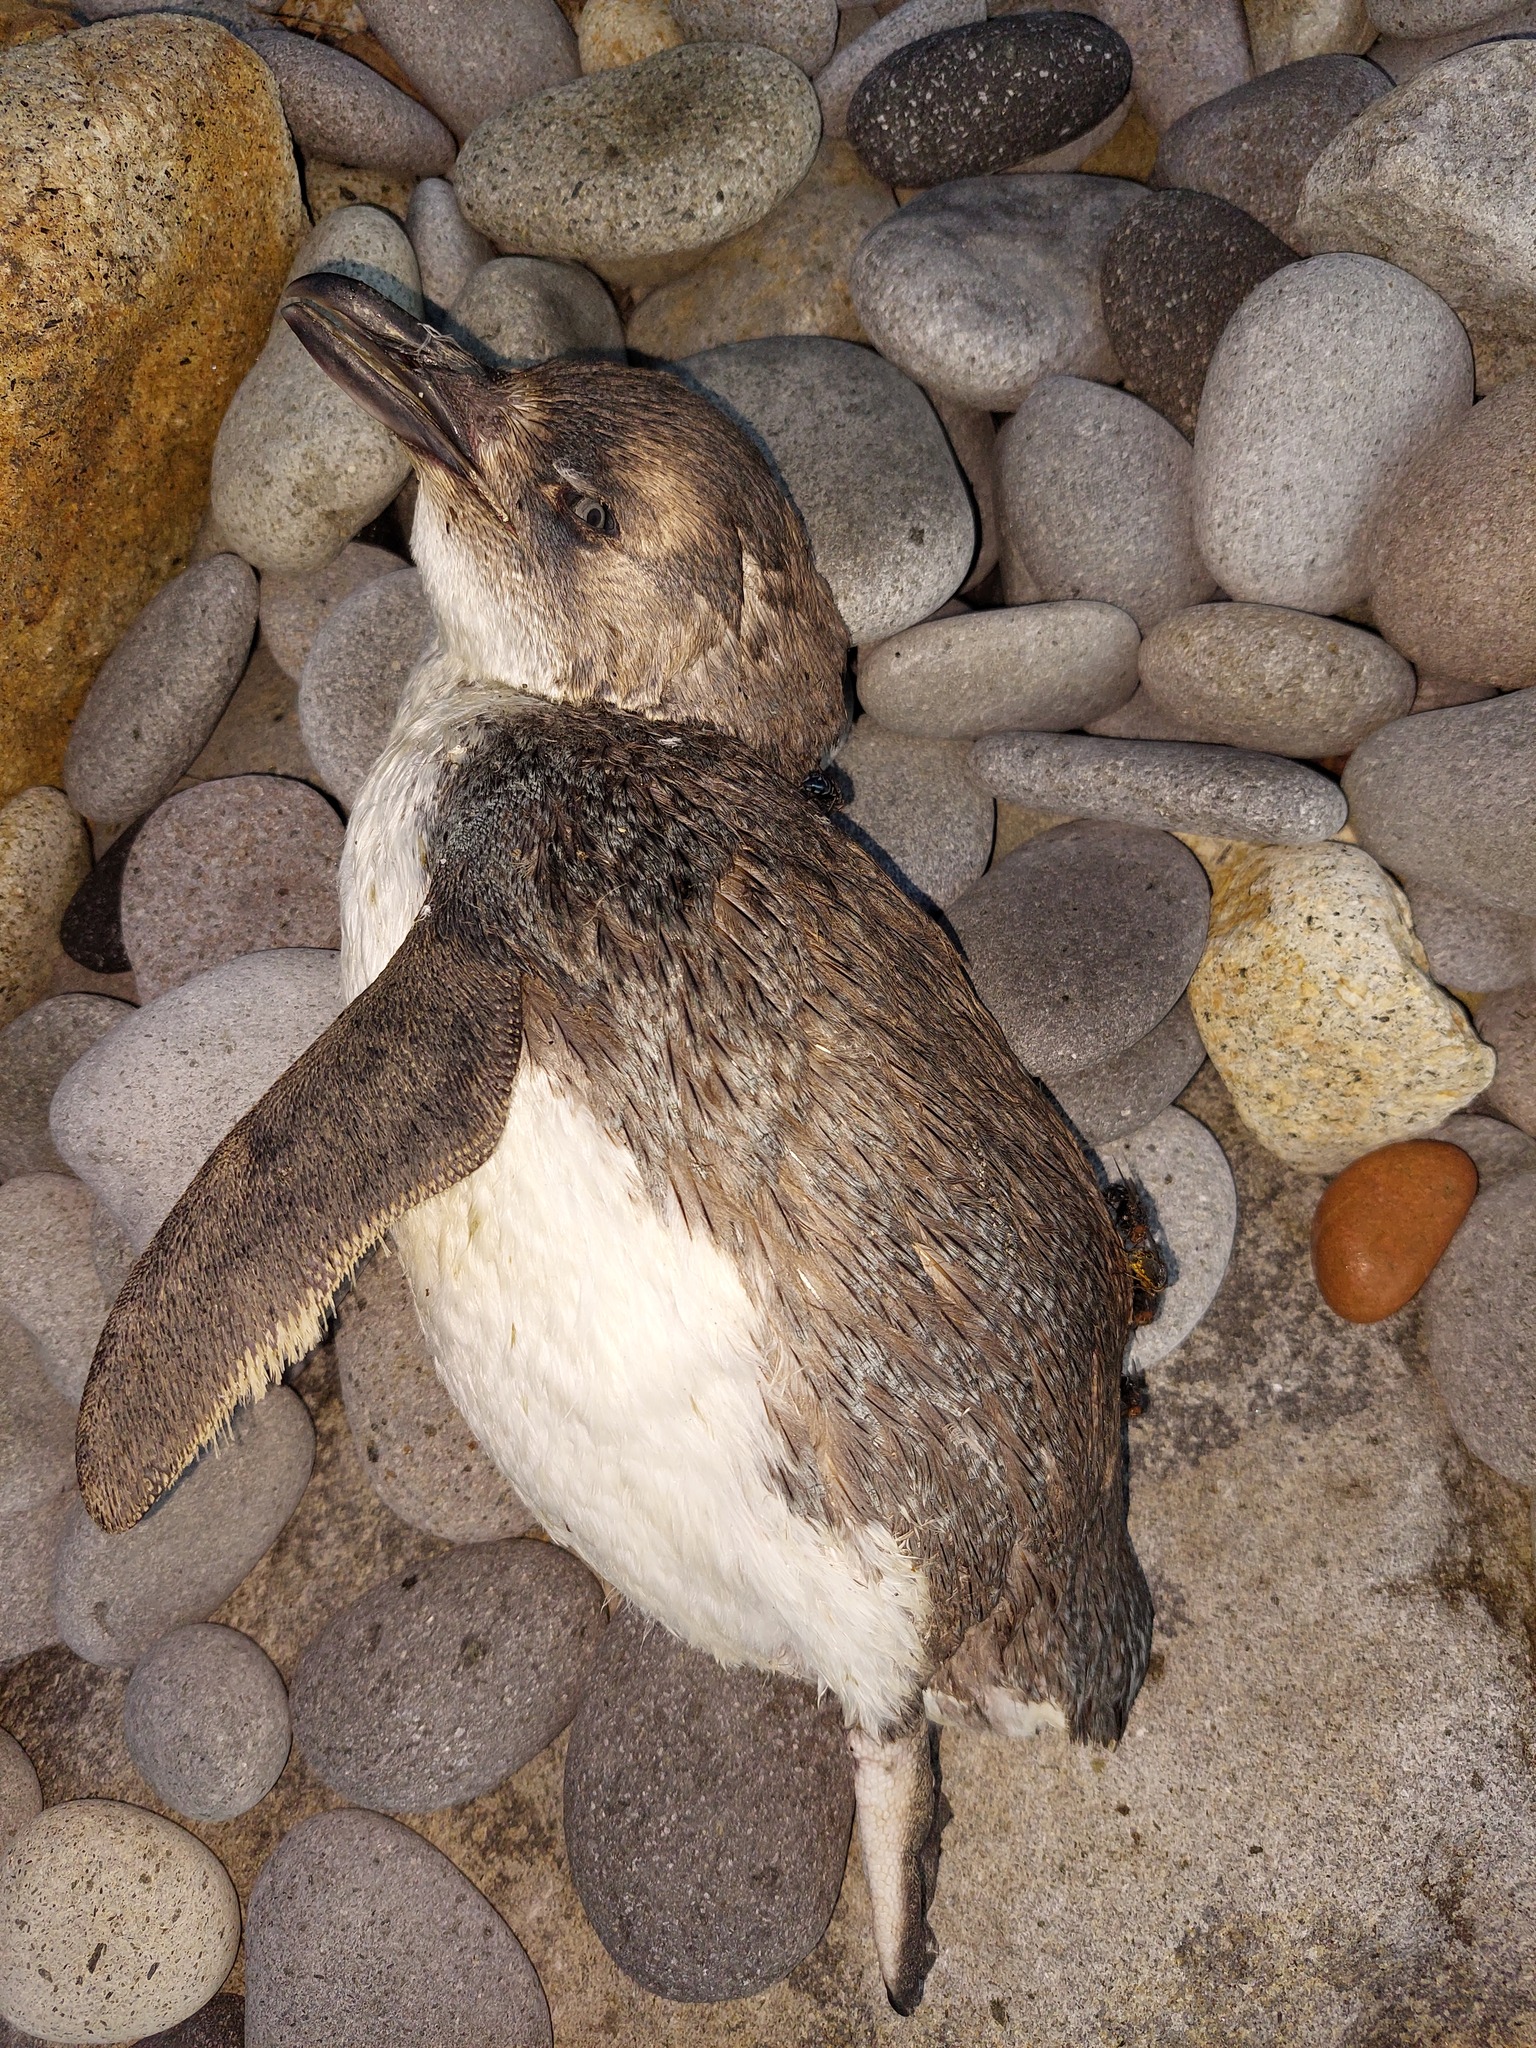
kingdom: Animalia
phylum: Chordata
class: Aves
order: Sphenisciformes
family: Spheniscidae
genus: Eudyptula
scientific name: Eudyptula minor
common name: Little penguin
